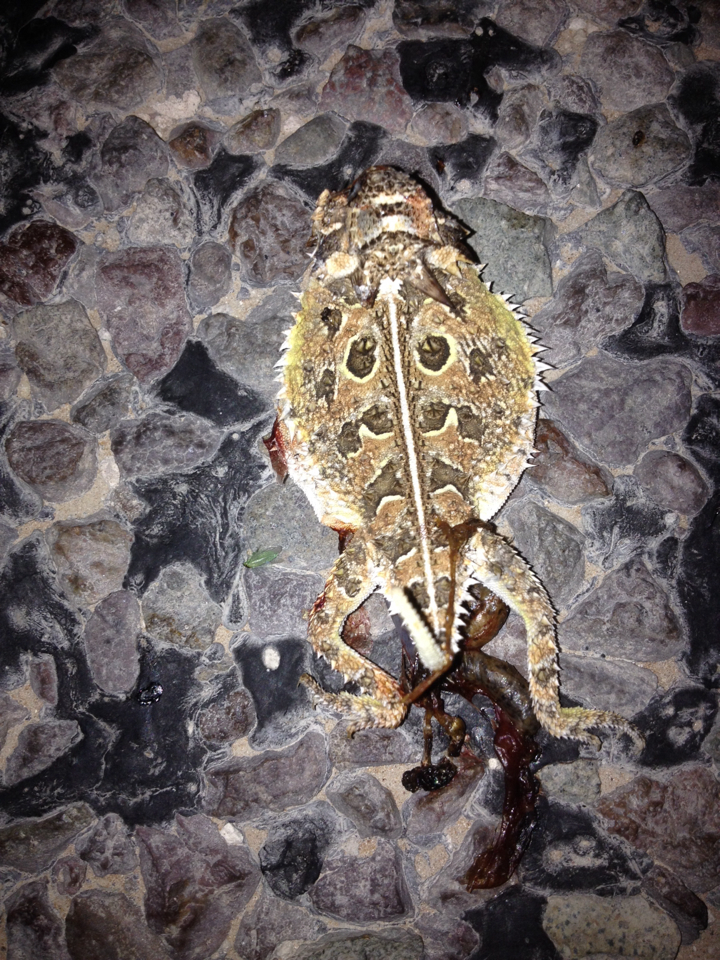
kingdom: Animalia
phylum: Chordata
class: Squamata
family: Phrynosomatidae
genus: Phrynosoma
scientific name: Phrynosoma cornutum
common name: Texas horned lizard
